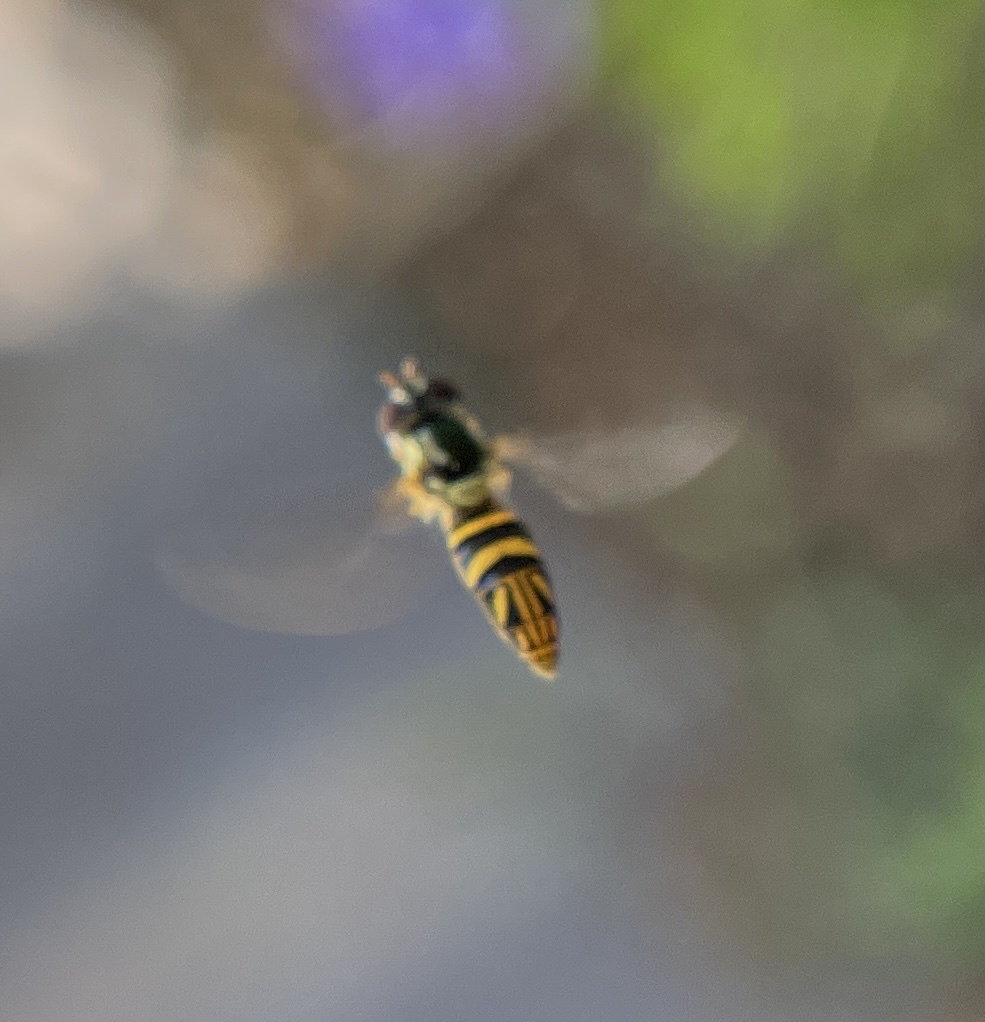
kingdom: Animalia
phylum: Arthropoda
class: Insecta
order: Diptera
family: Syrphidae
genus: Allograpta
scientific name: Allograpta obliqua
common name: Common oblique syrphid
